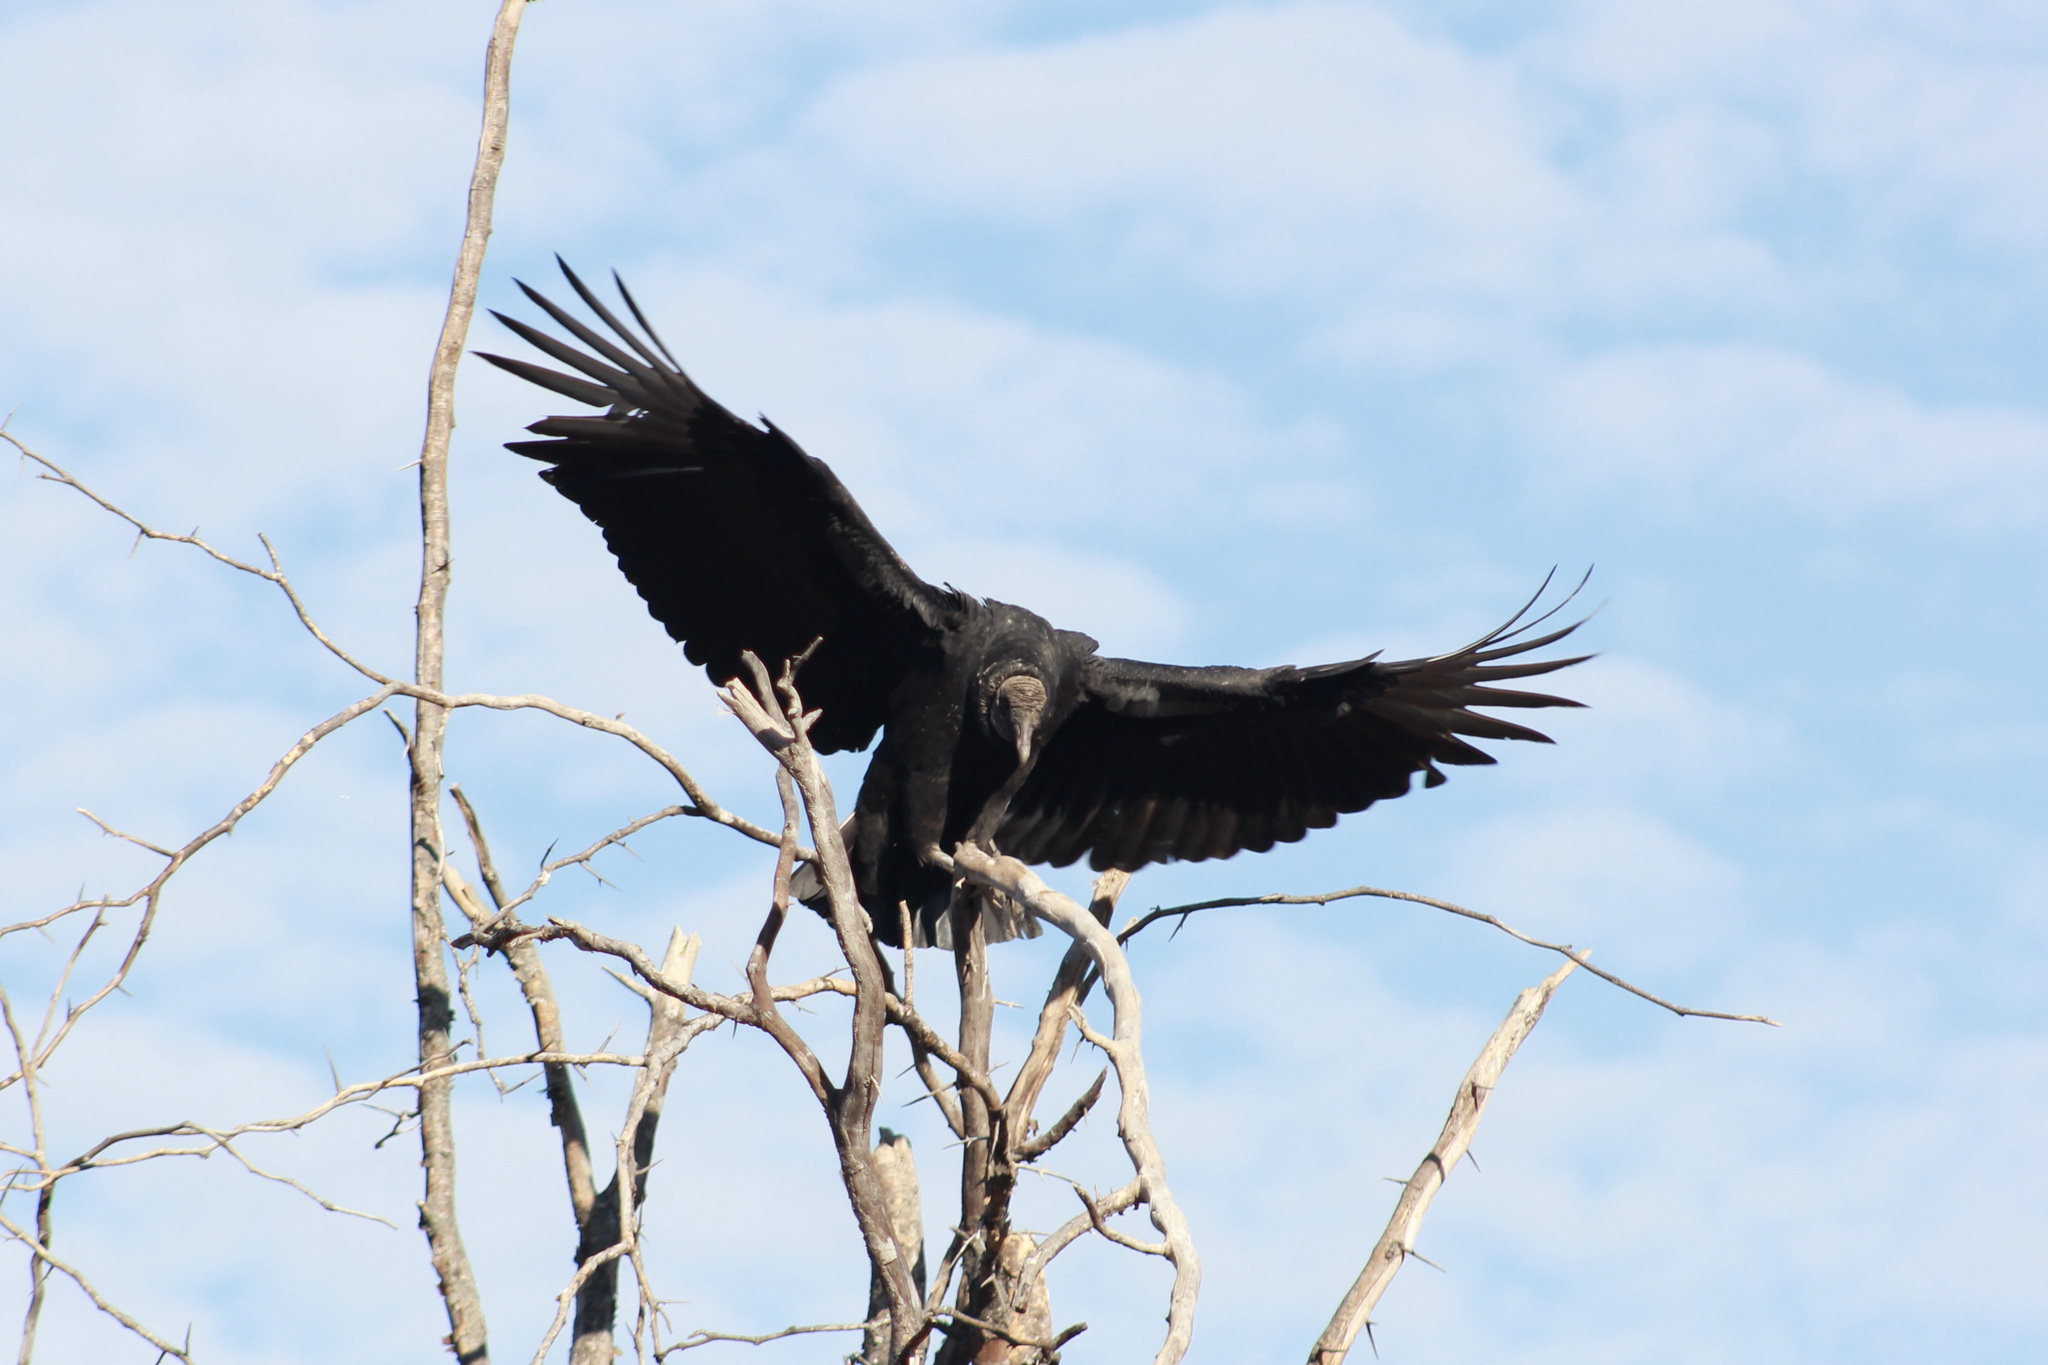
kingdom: Animalia
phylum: Chordata
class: Aves
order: Accipitriformes
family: Cathartidae
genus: Coragyps
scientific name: Coragyps atratus
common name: Black vulture
